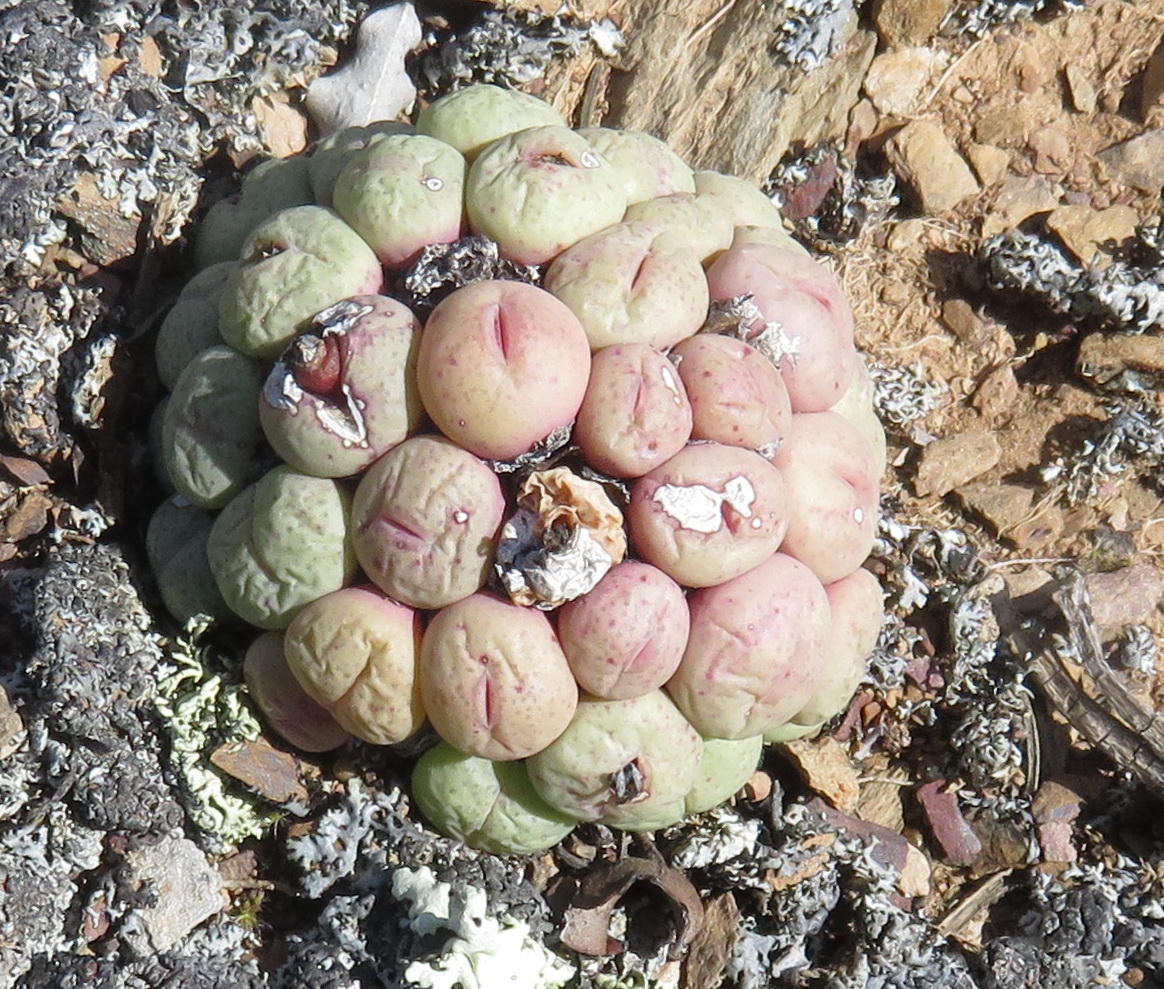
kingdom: Plantae
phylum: Tracheophyta
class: Magnoliopsida
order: Caryophyllales
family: Aizoaceae
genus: Conophytum
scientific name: Conophytum truncatum
